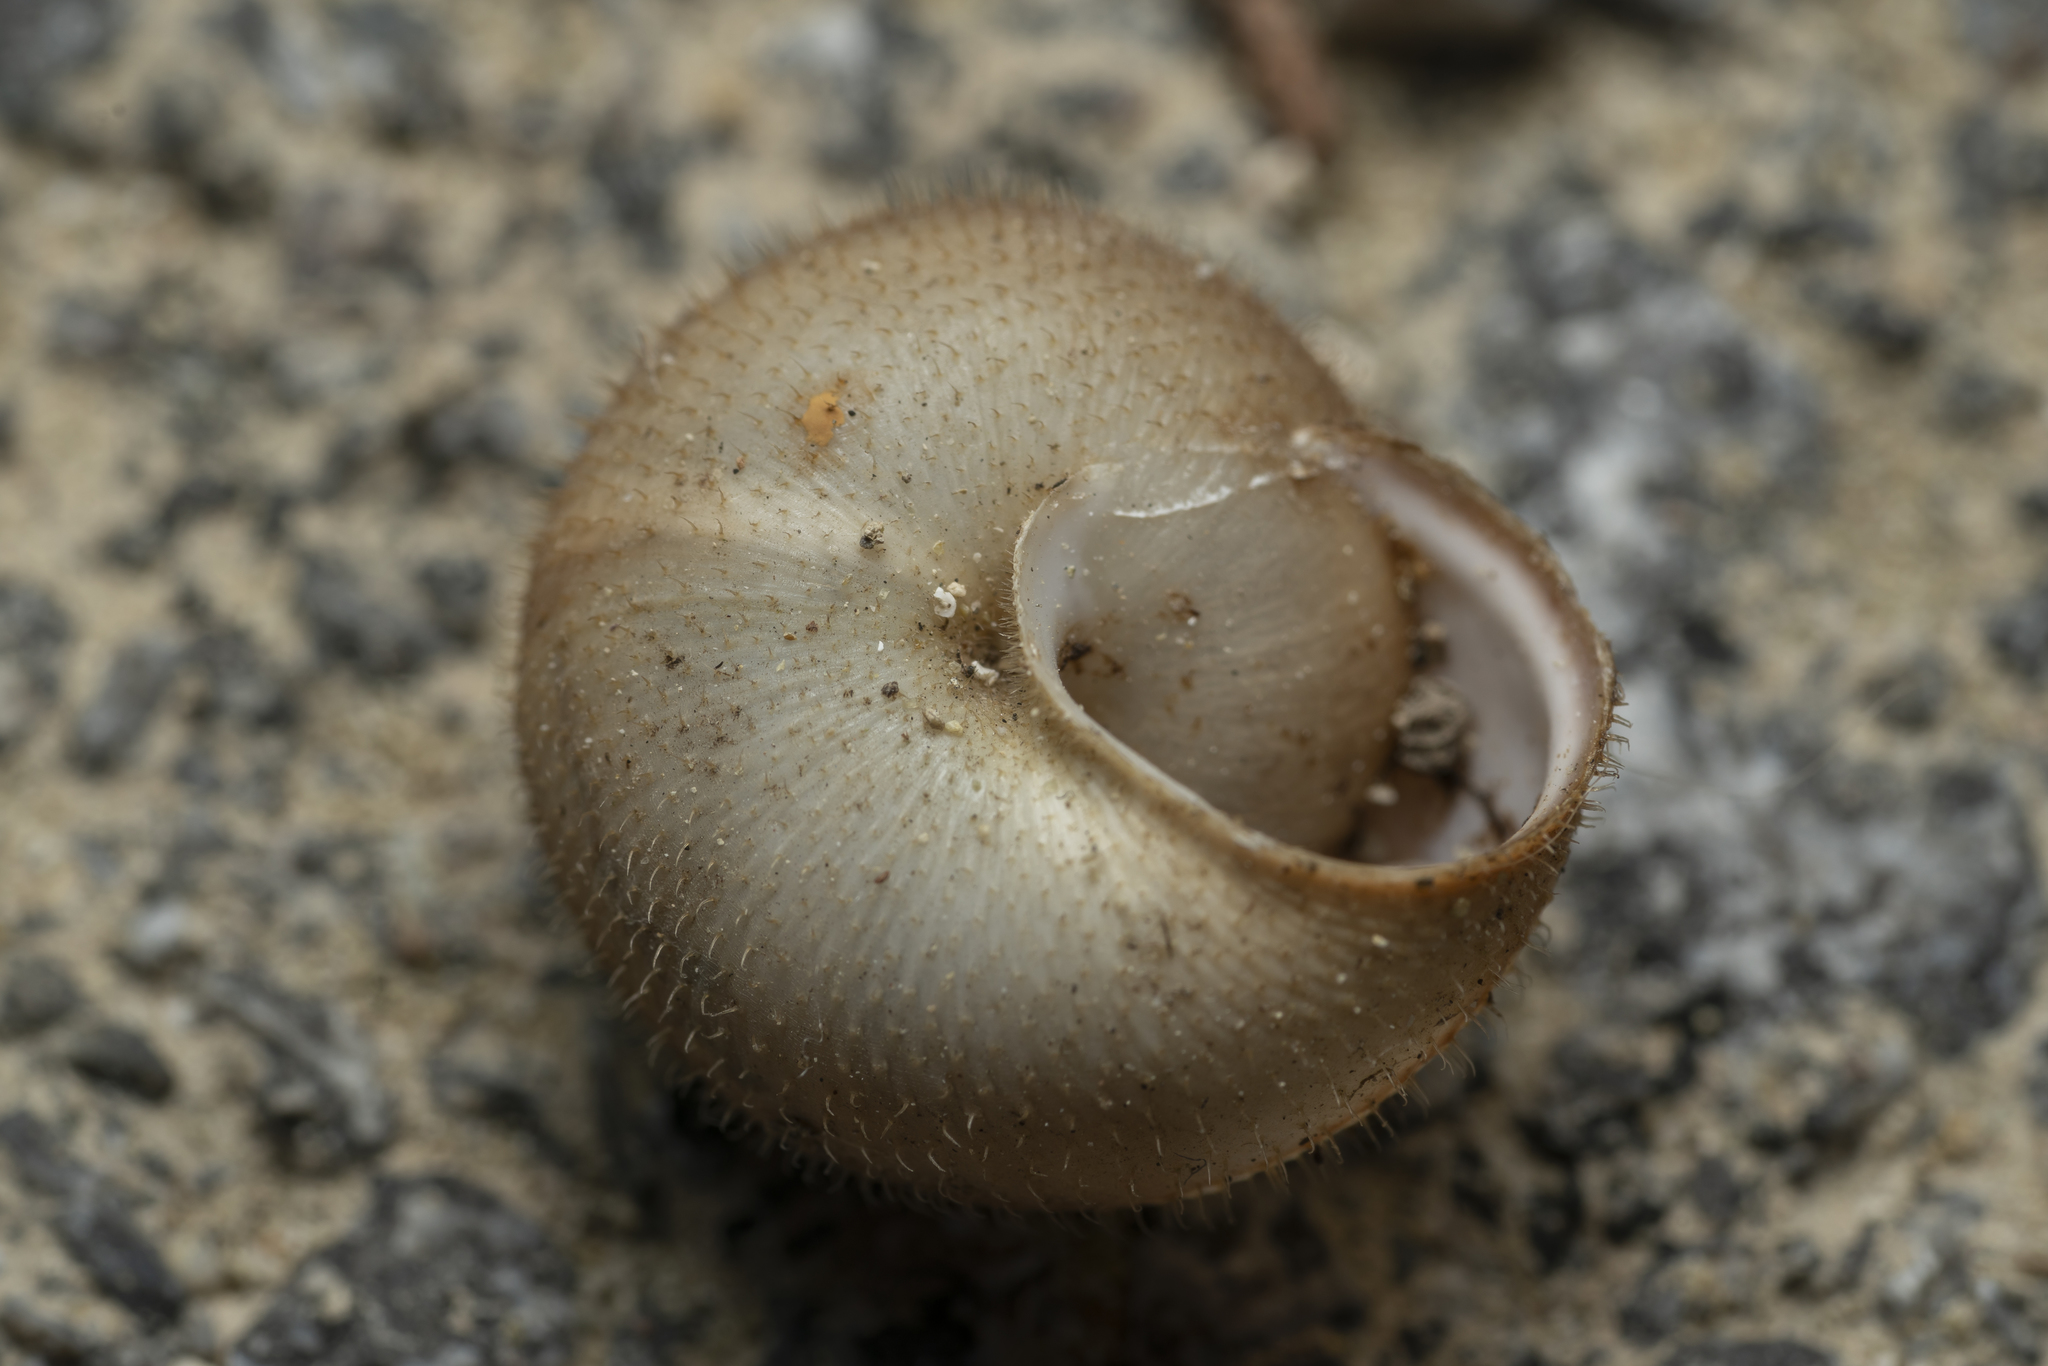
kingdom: Animalia
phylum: Mollusca
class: Gastropoda
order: Stylommatophora
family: Hygromiidae
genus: Metafruticicola
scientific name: Metafruticicola pellita
